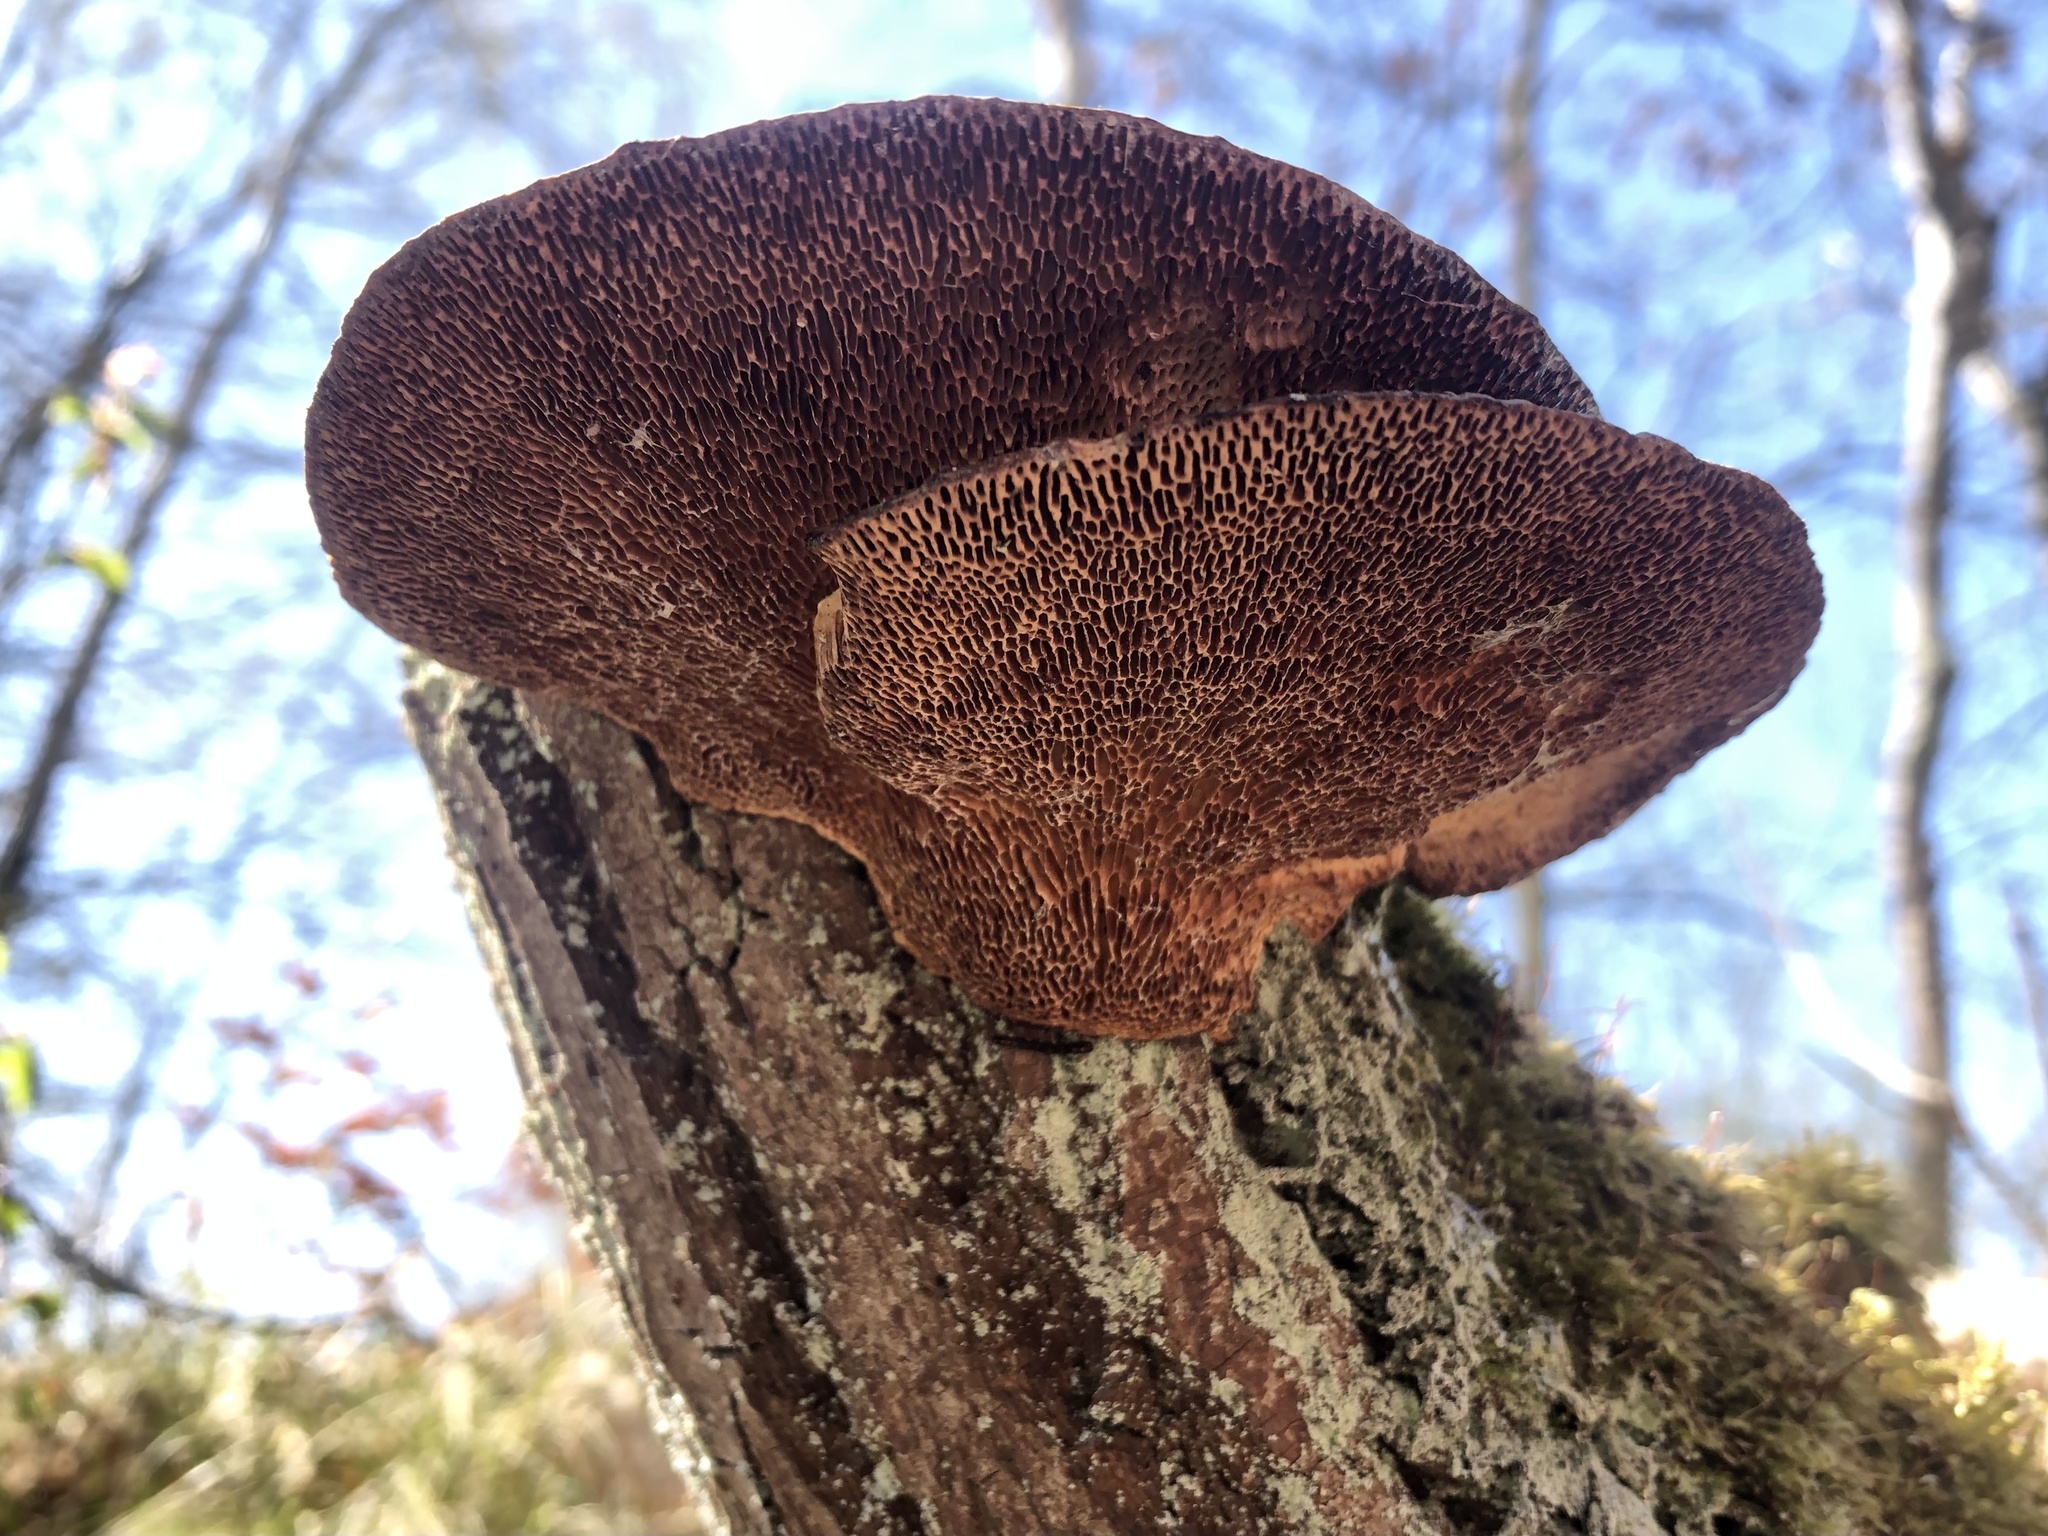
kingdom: Fungi
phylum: Basidiomycota
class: Agaricomycetes
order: Polyporales
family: Polyporaceae
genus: Daedaleopsis
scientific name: Daedaleopsis confragosa
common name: Blushing bracket
